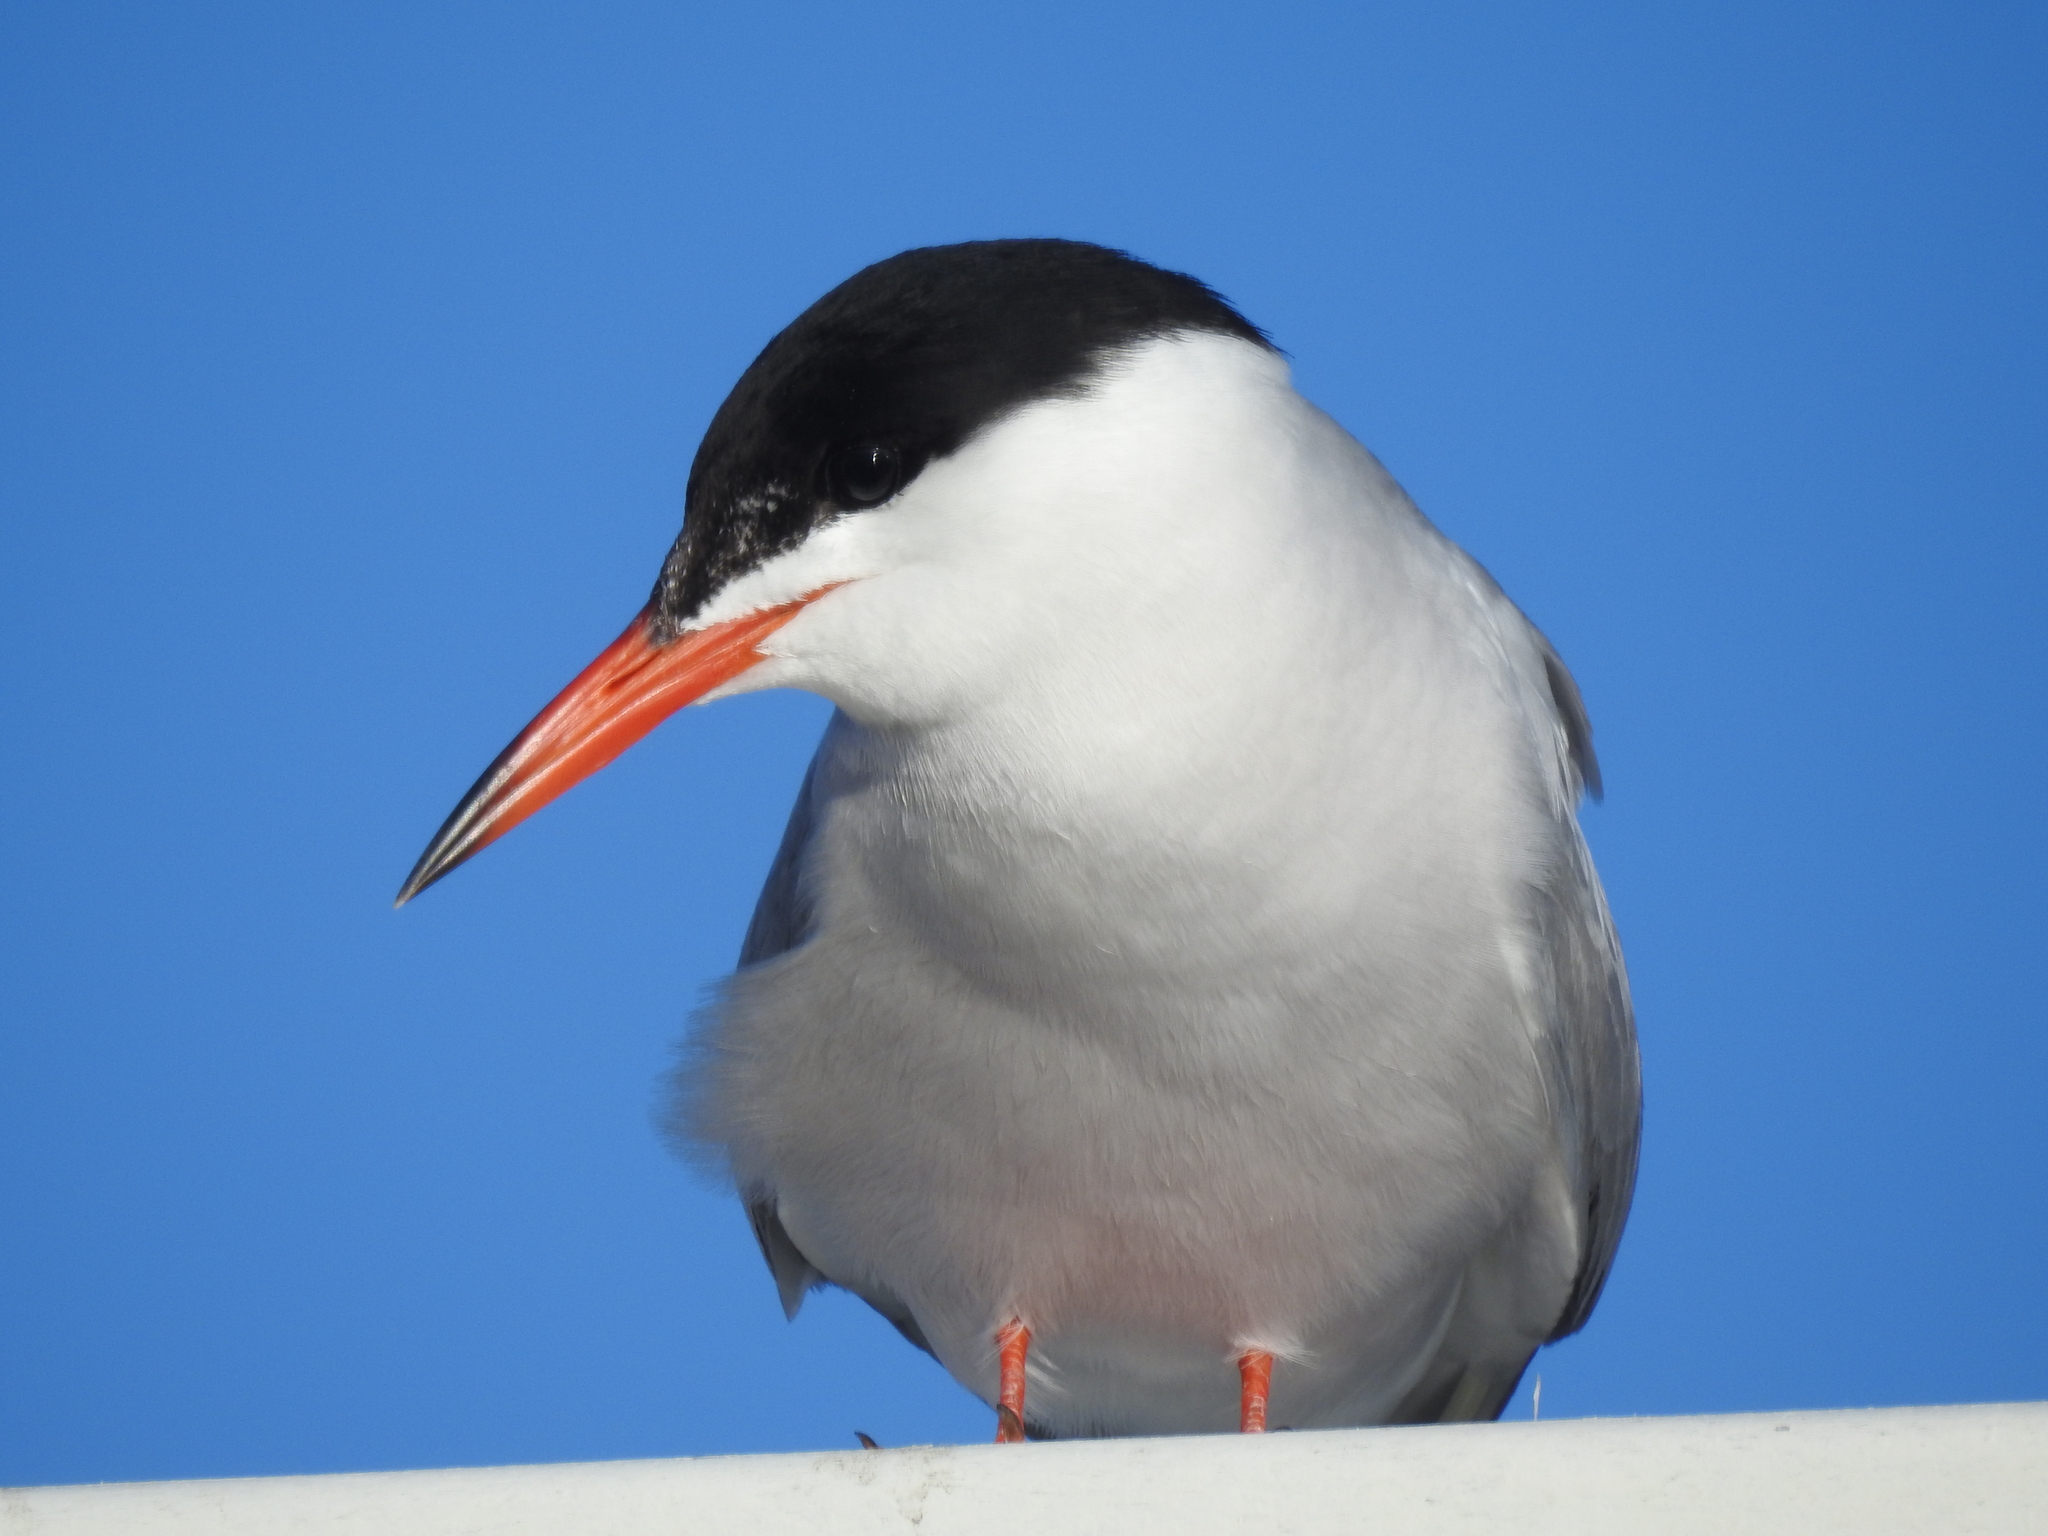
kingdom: Animalia
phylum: Chordata
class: Aves
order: Charadriiformes
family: Laridae
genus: Sterna
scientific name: Sterna hirundo
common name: Common tern
